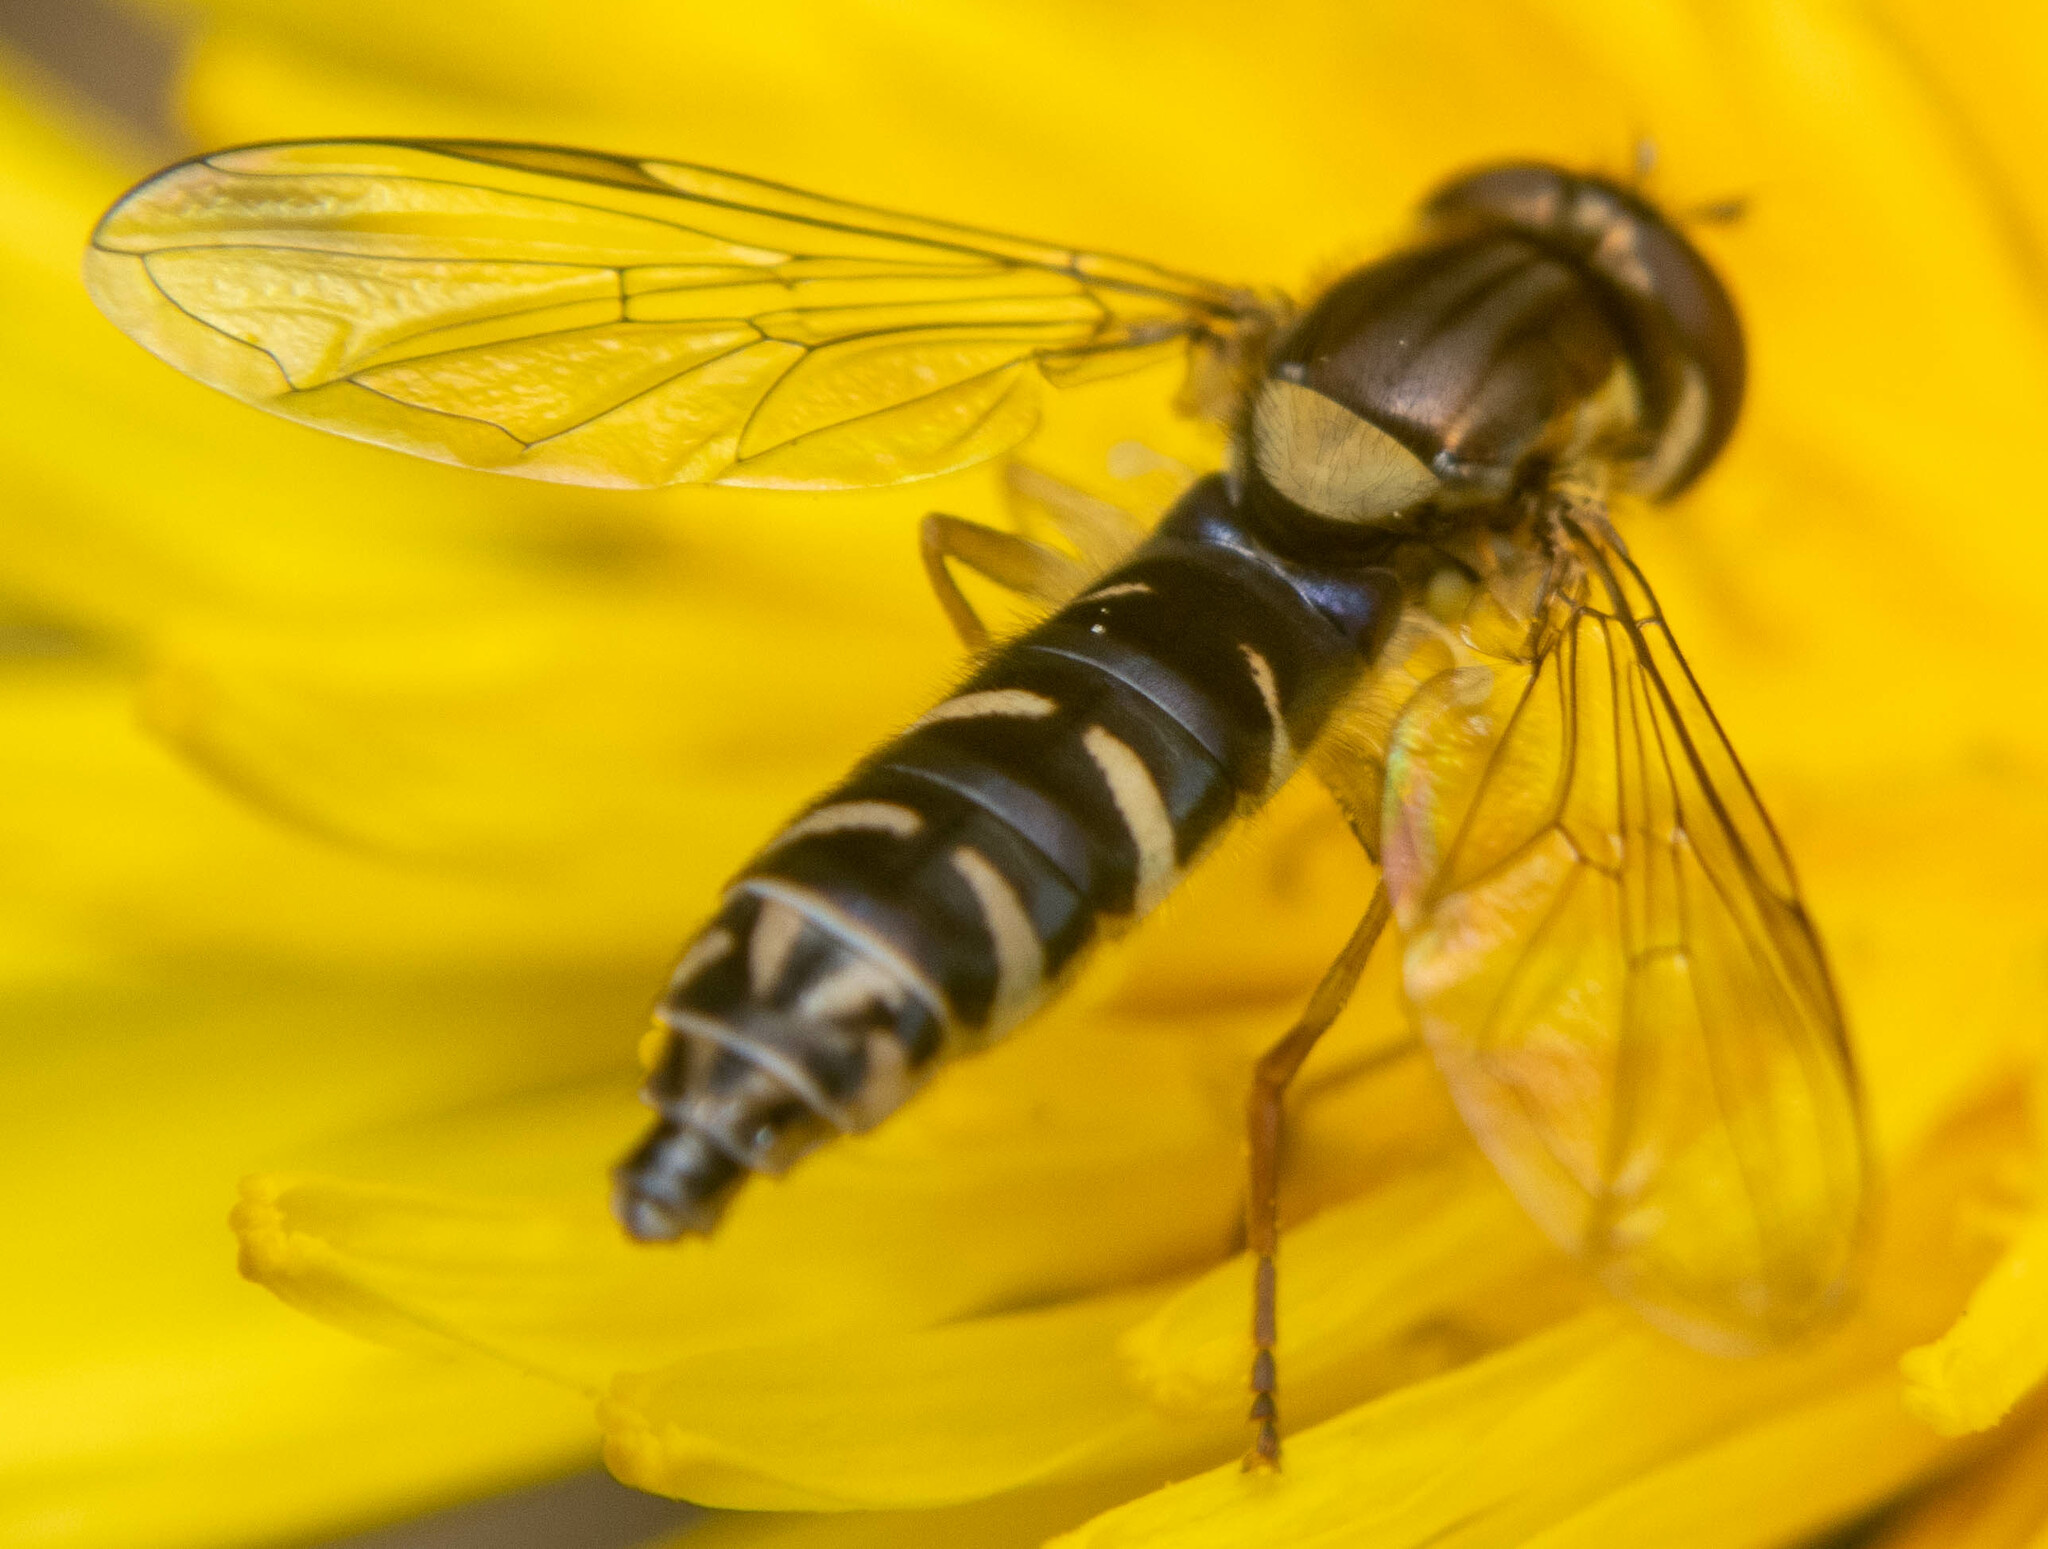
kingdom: Animalia
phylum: Arthropoda
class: Insecta
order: Diptera
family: Syrphidae
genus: Sphaerophoria
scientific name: Sphaerophoria
